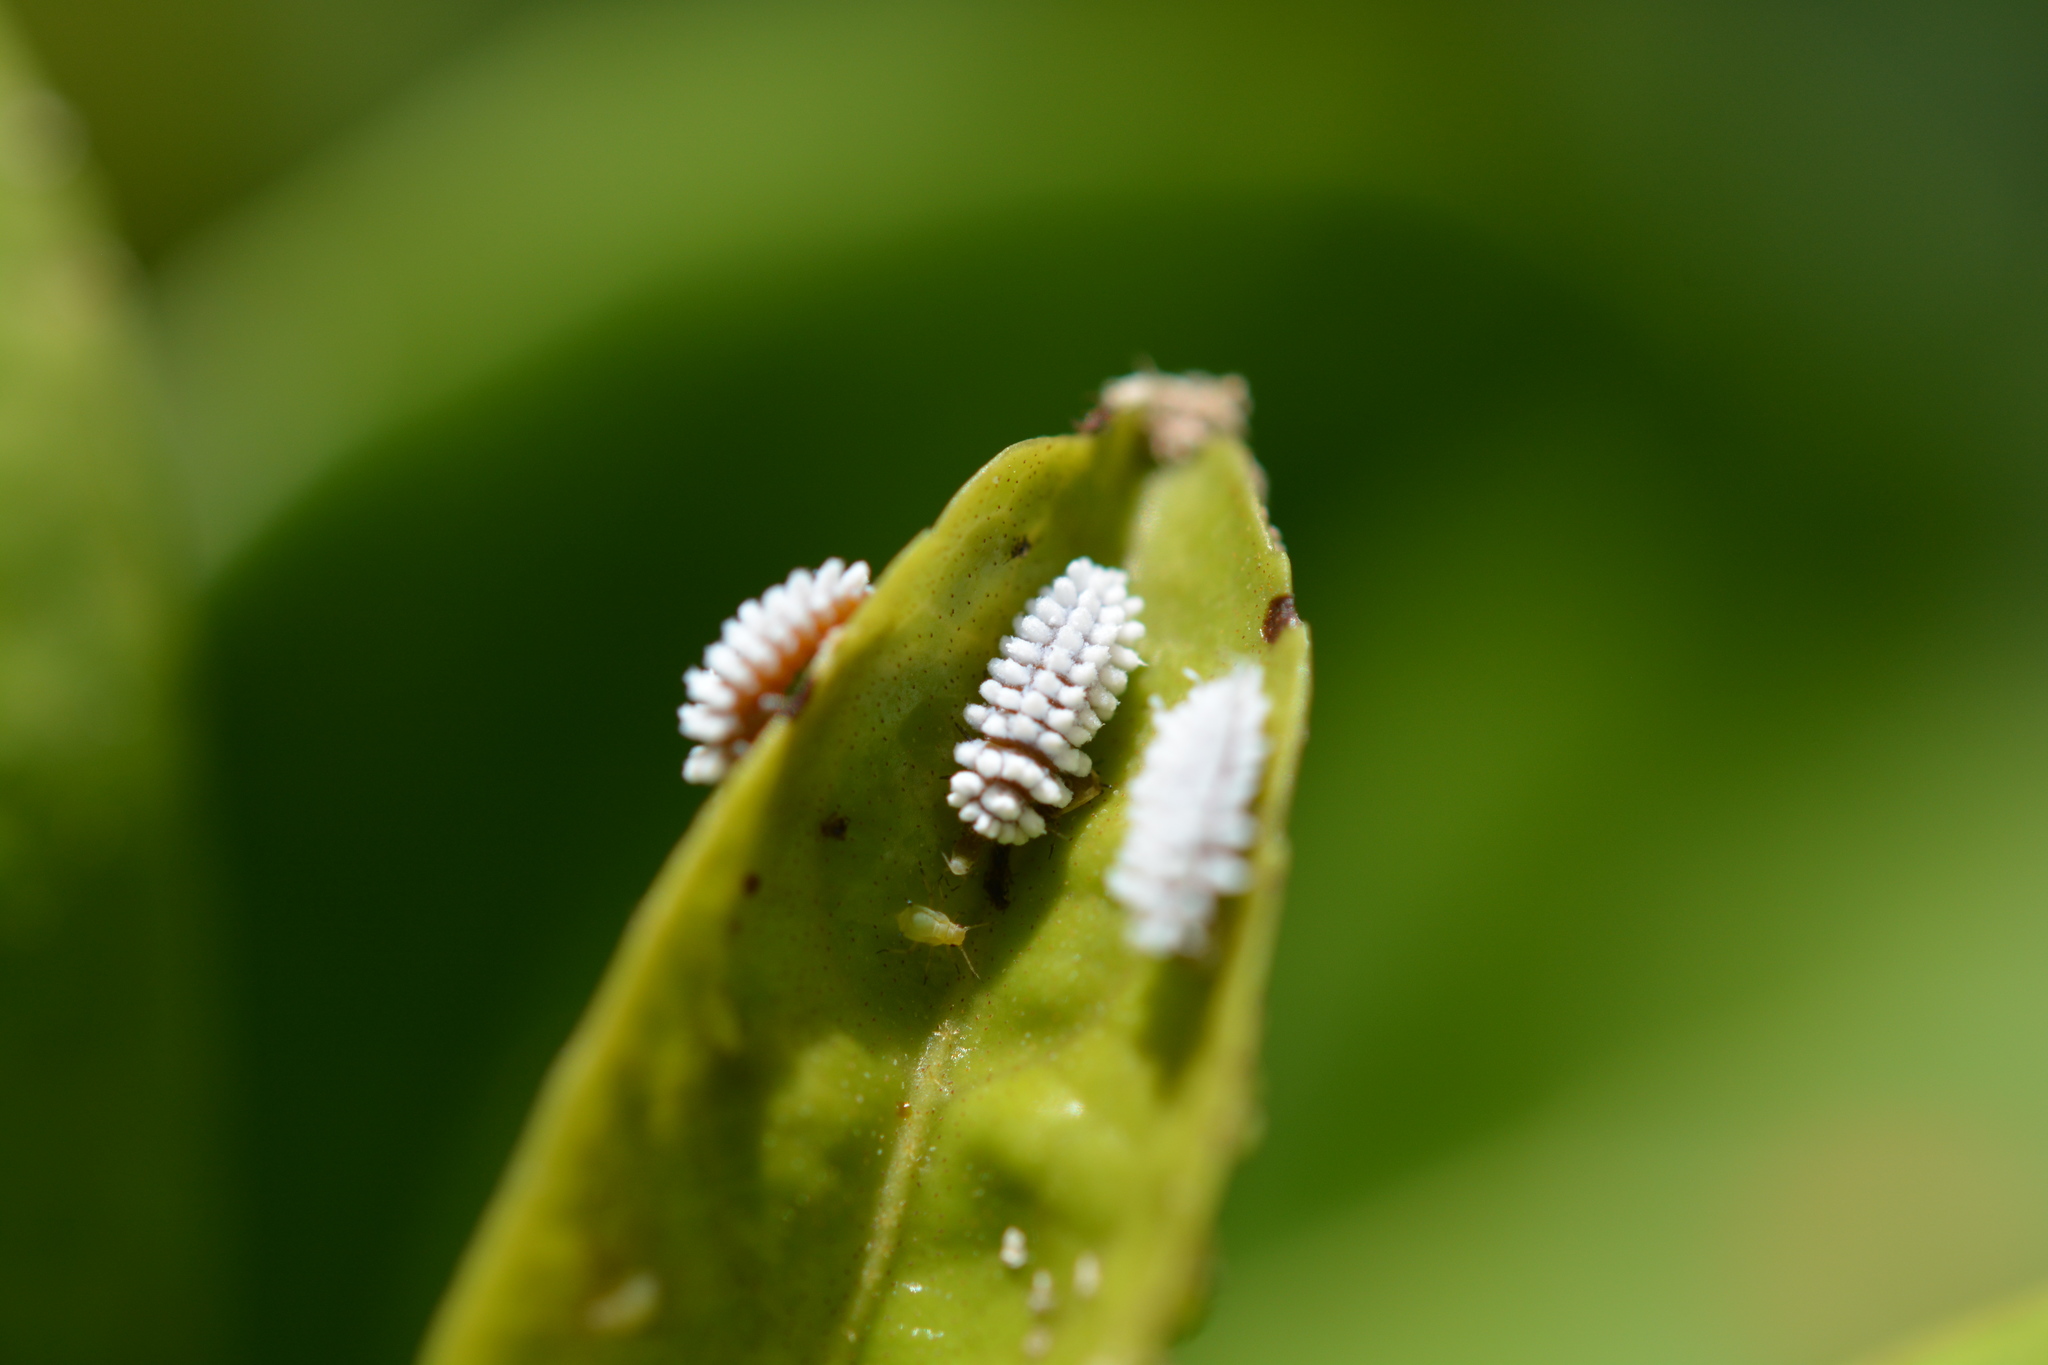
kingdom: Animalia
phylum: Arthropoda
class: Insecta
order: Coleoptera
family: Coccinellidae
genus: Cryptolaemus
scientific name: Cryptolaemus montrouzieri
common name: Mealybug destroyer
